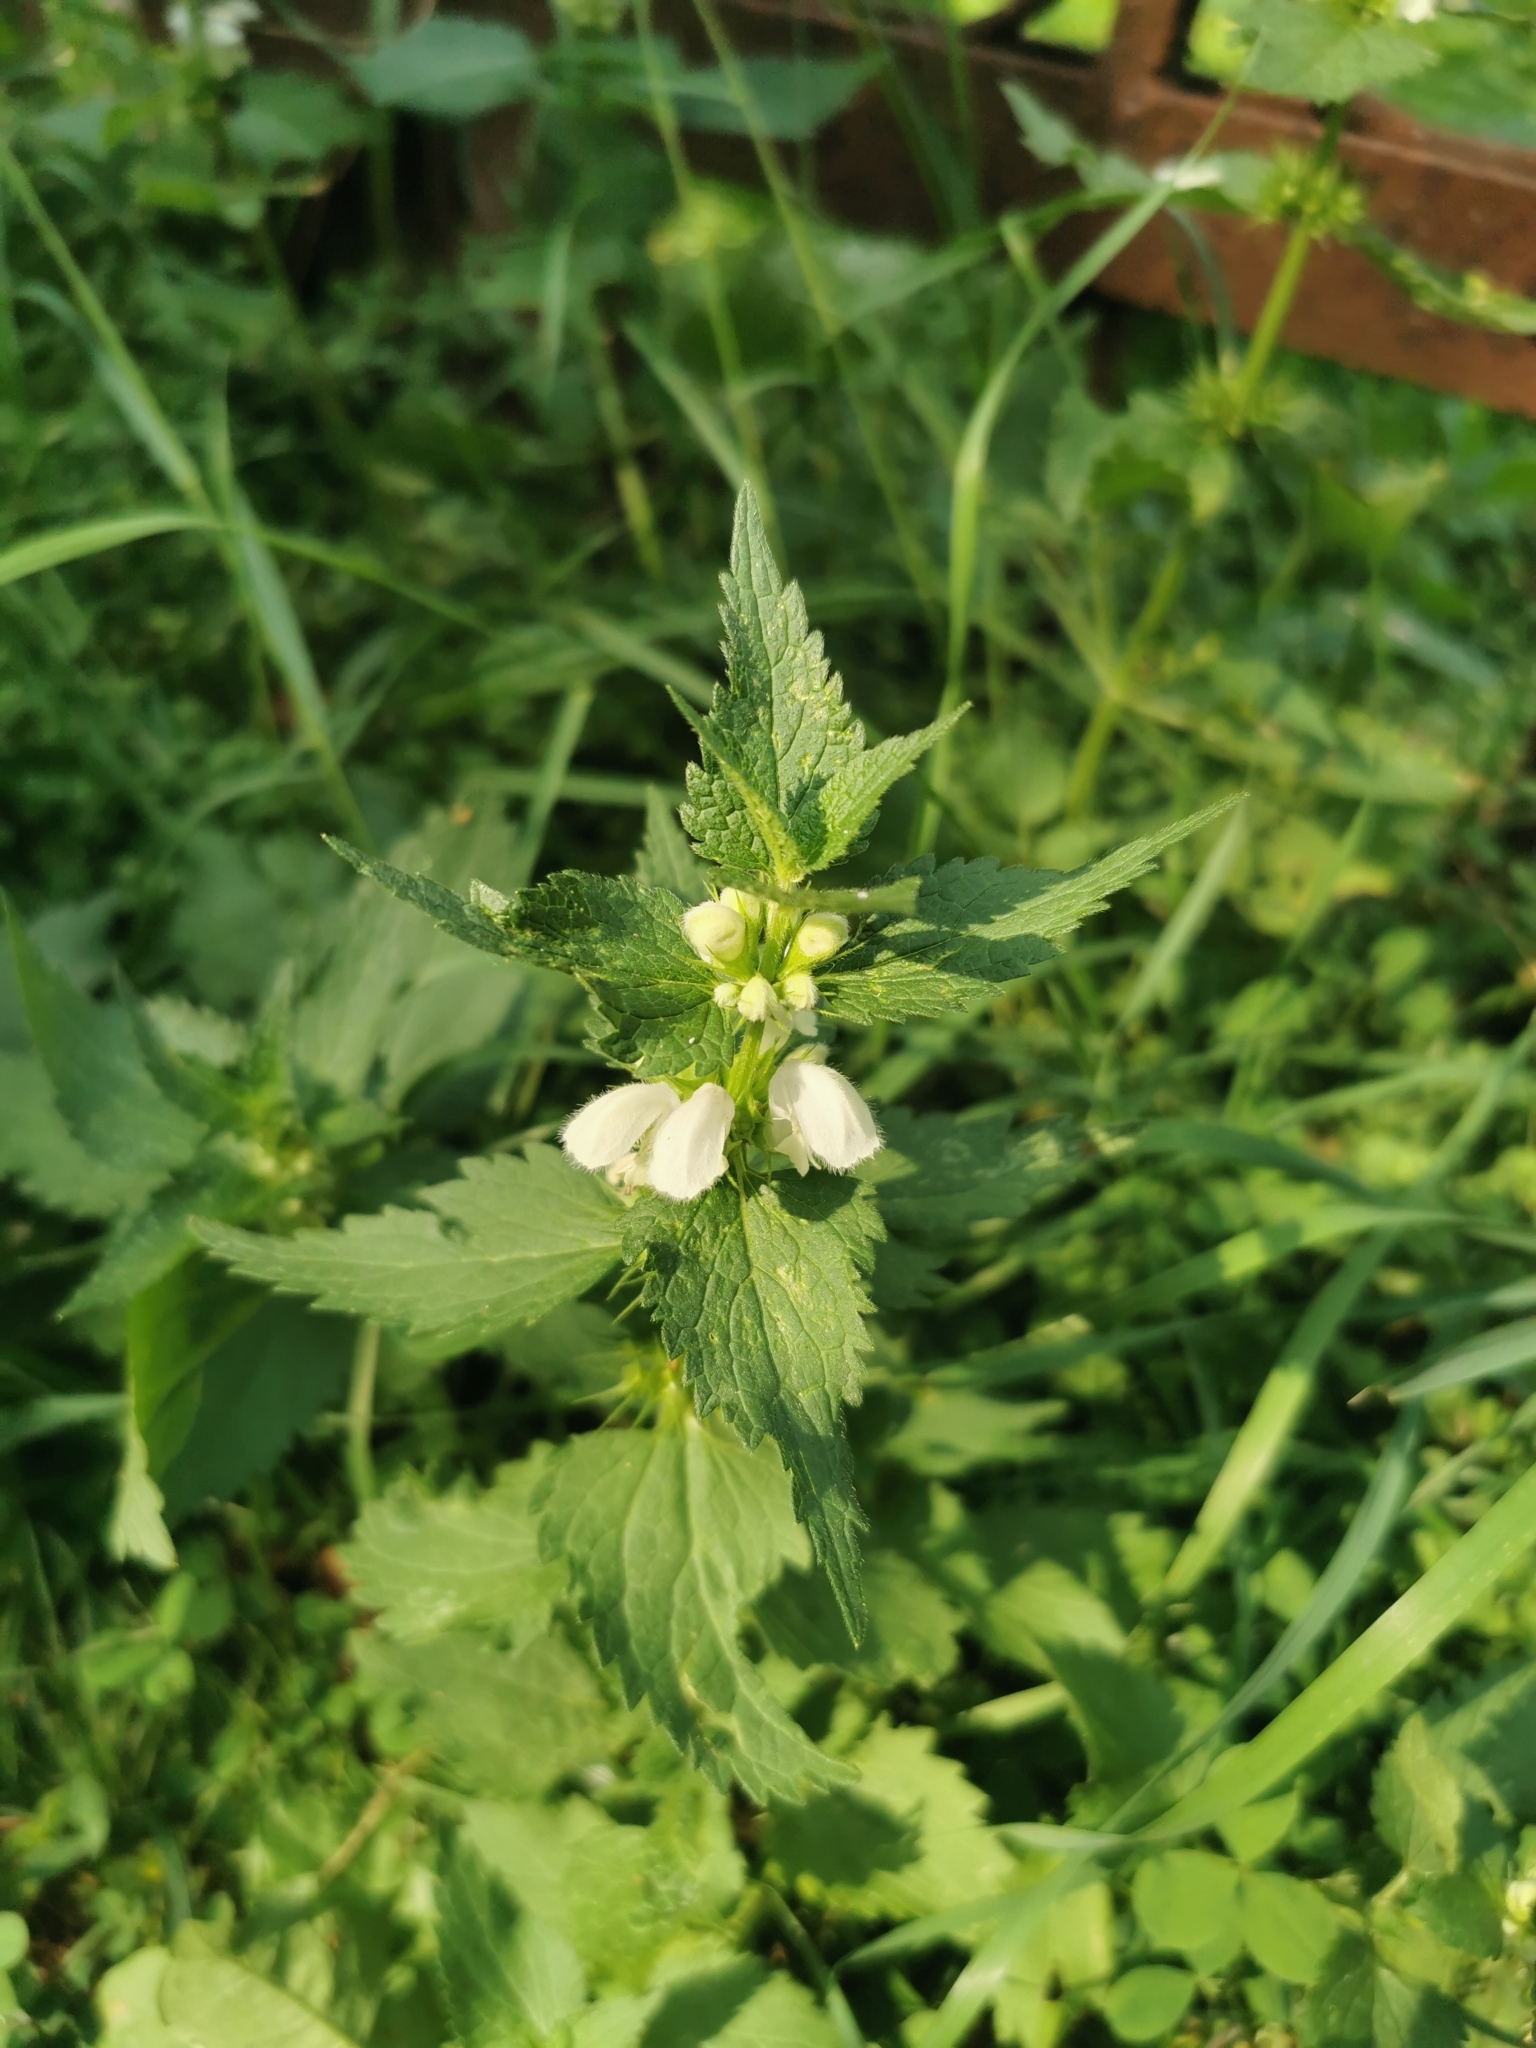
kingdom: Plantae
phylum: Tracheophyta
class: Magnoliopsida
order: Lamiales
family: Lamiaceae
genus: Lamium
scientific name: Lamium album
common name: White dead-nettle
